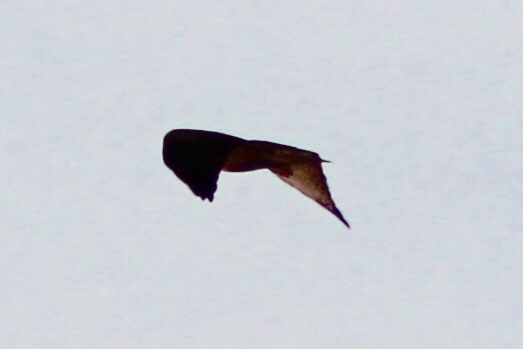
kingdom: Animalia
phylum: Chordata
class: Aves
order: Accipitriformes
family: Accipitridae
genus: Buteo
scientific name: Buteo jamaicensis
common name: Red-tailed hawk
